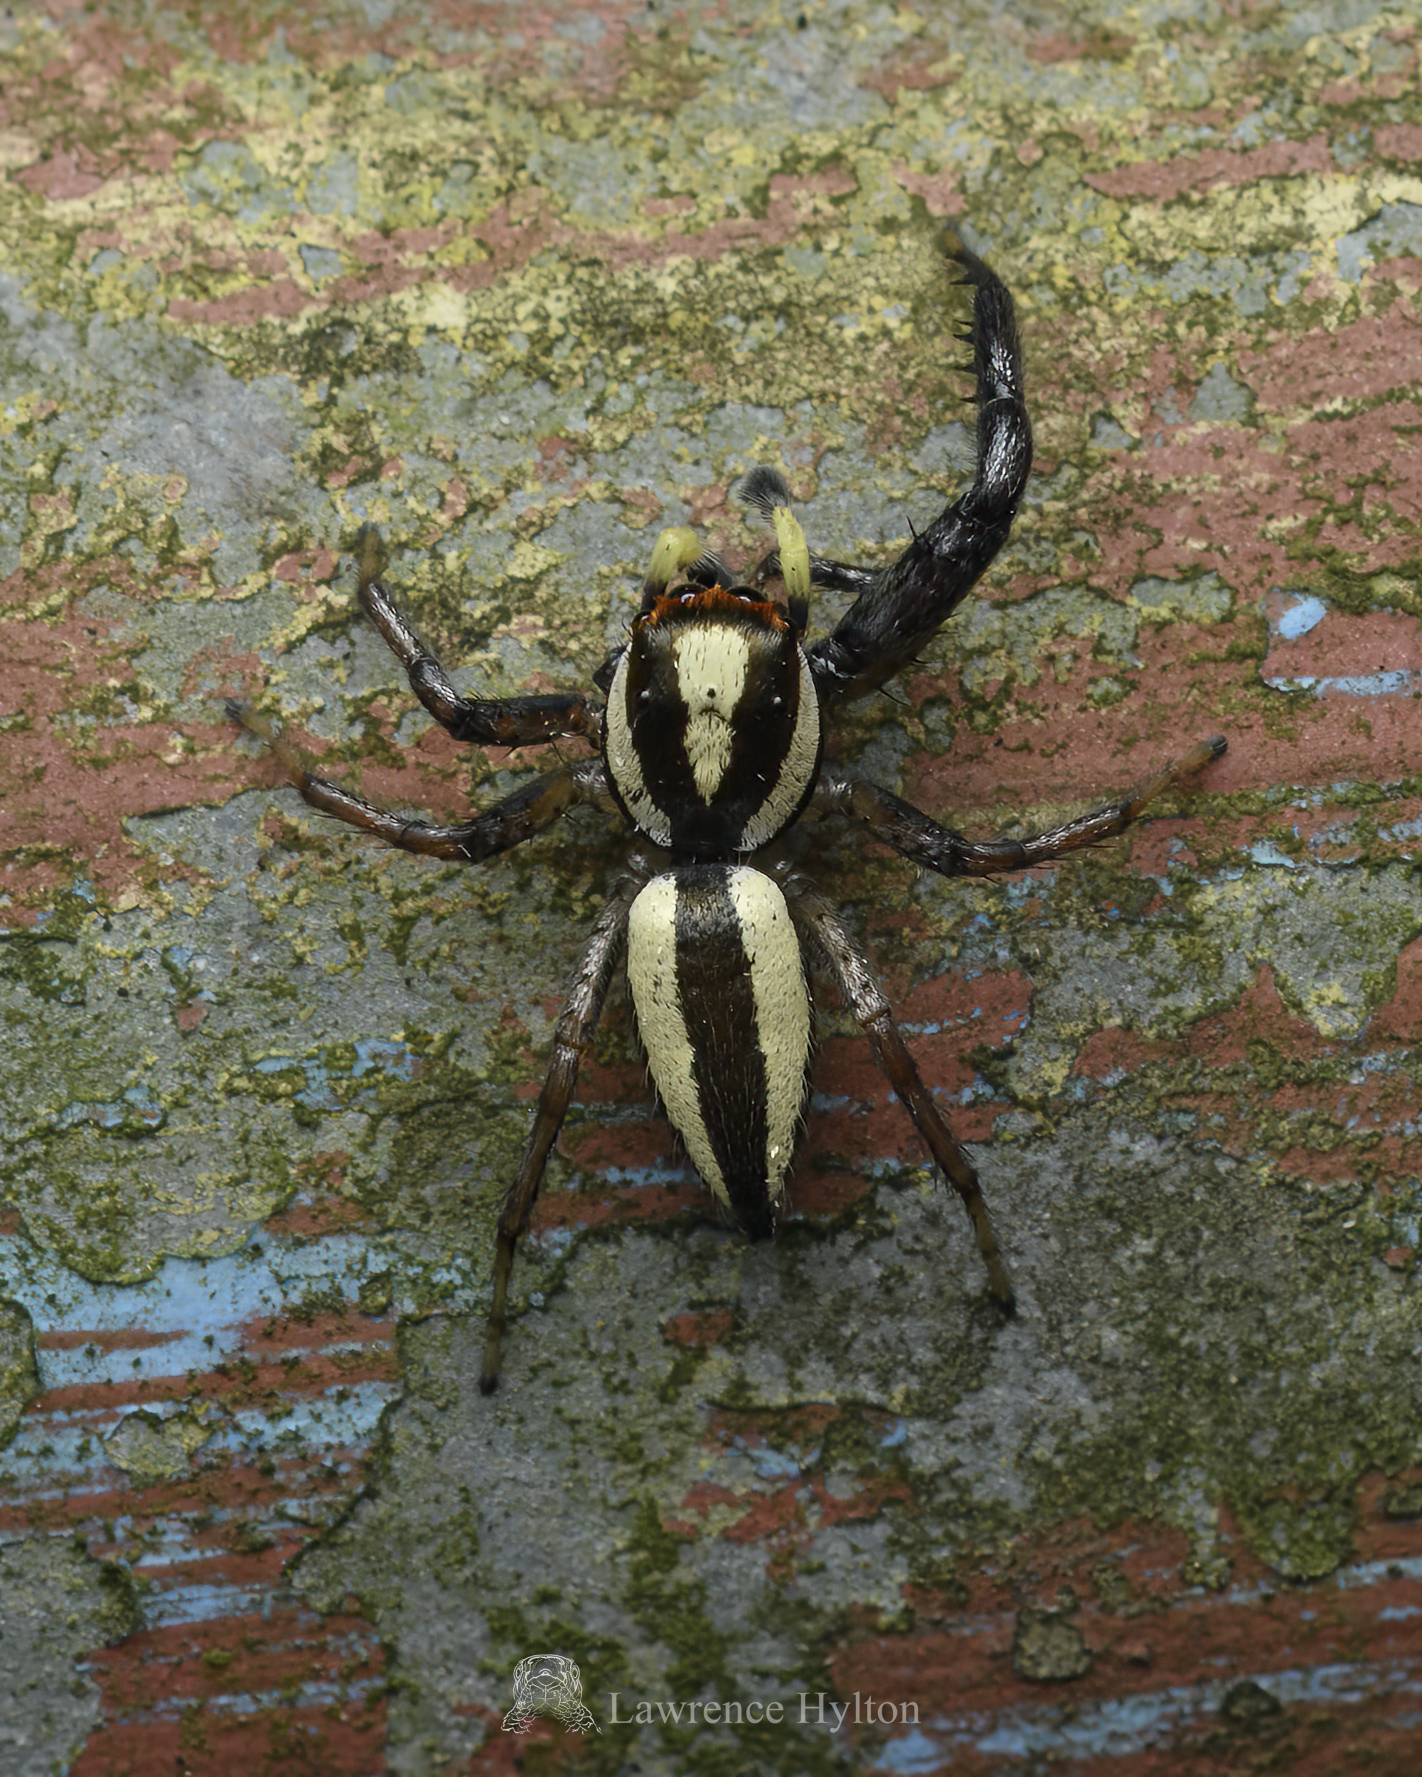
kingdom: Animalia
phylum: Arthropoda
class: Arachnida
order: Araneae
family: Salticidae
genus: Epocilla
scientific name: Epocilla blairei
